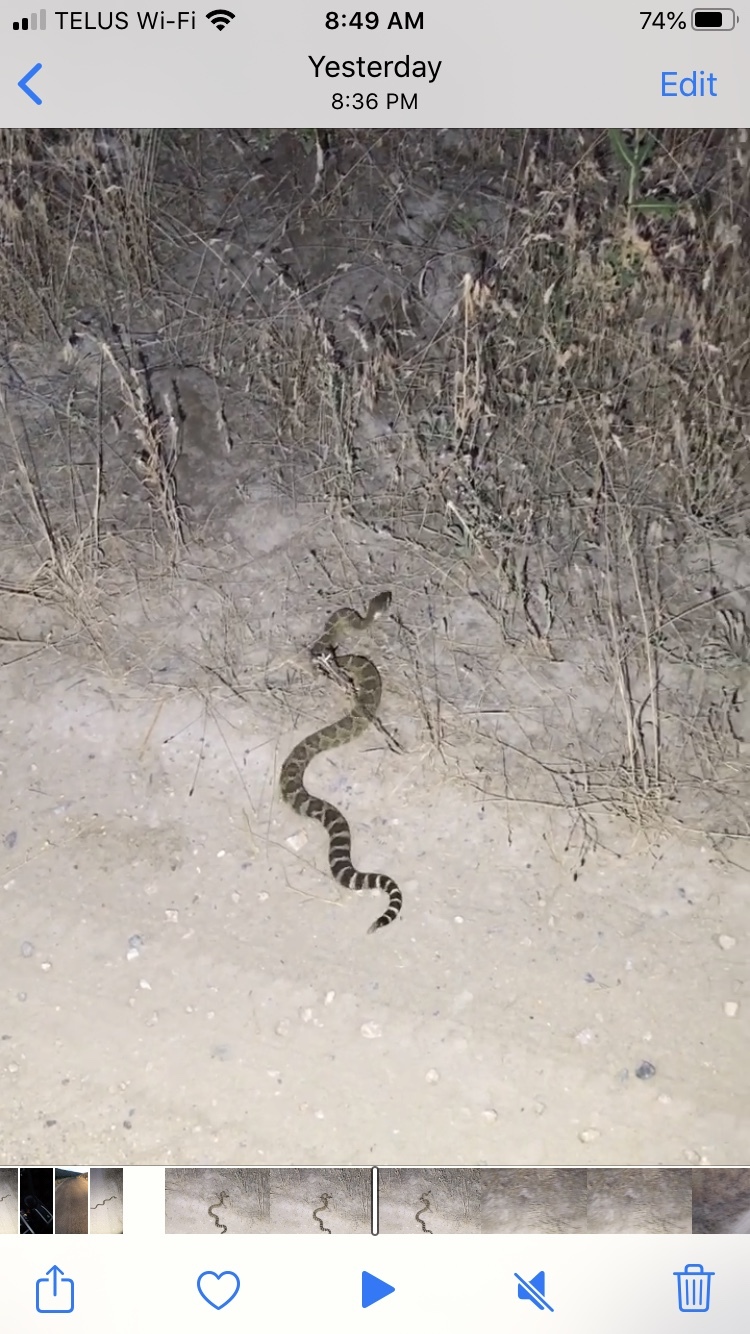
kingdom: Animalia
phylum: Chordata
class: Squamata
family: Viperidae
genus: Crotalus
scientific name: Crotalus oreganus
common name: Abyssus
